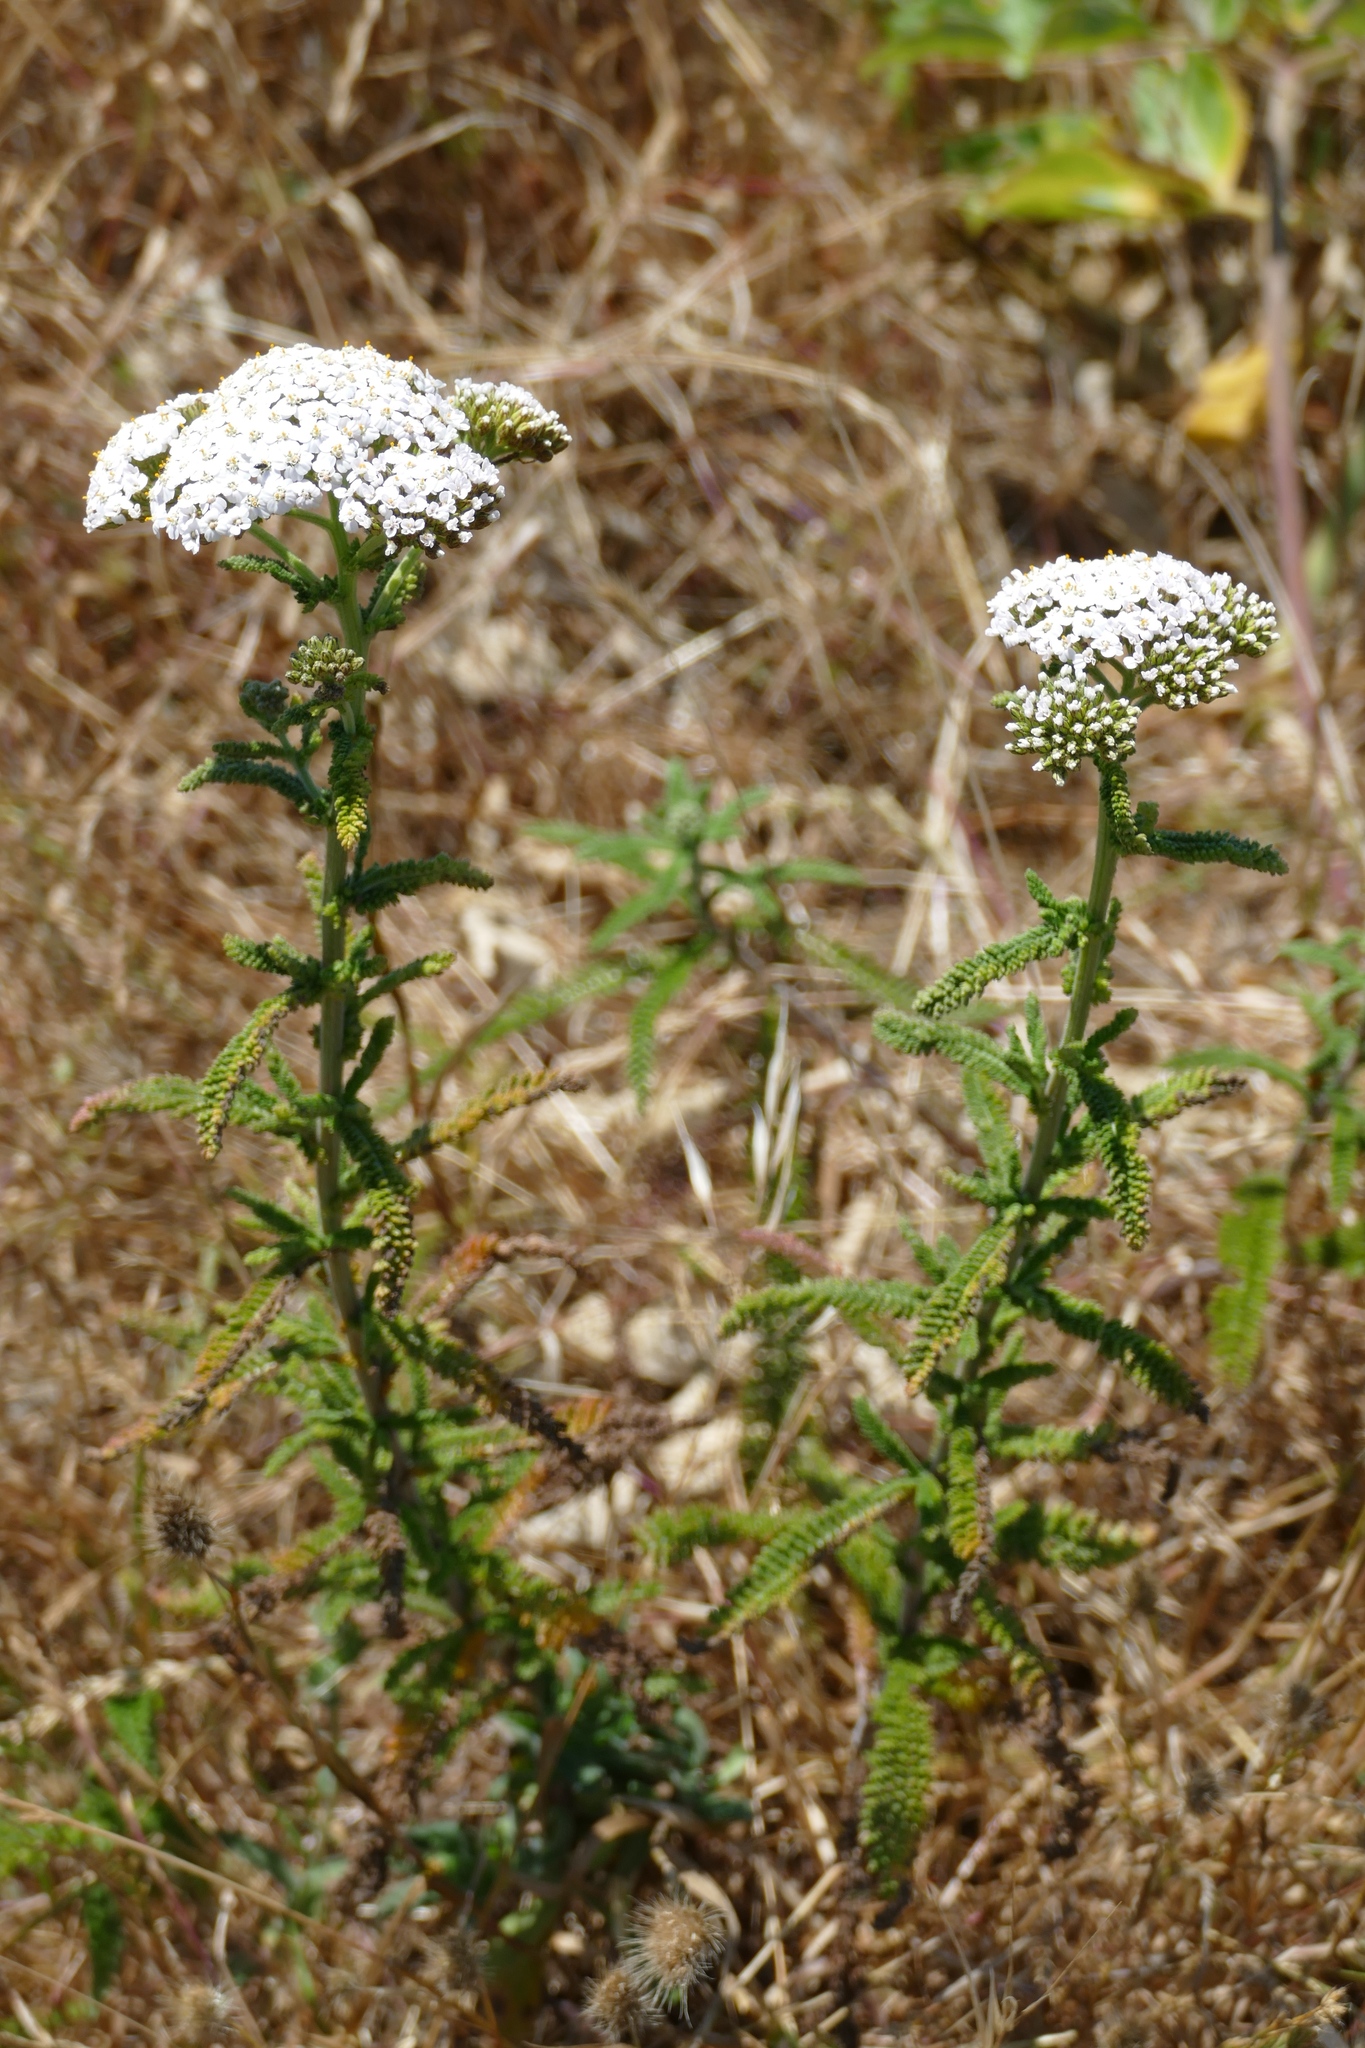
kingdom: Plantae
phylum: Tracheophyta
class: Magnoliopsida
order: Asterales
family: Asteraceae
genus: Achillea
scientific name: Achillea millefolium
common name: Yarrow
